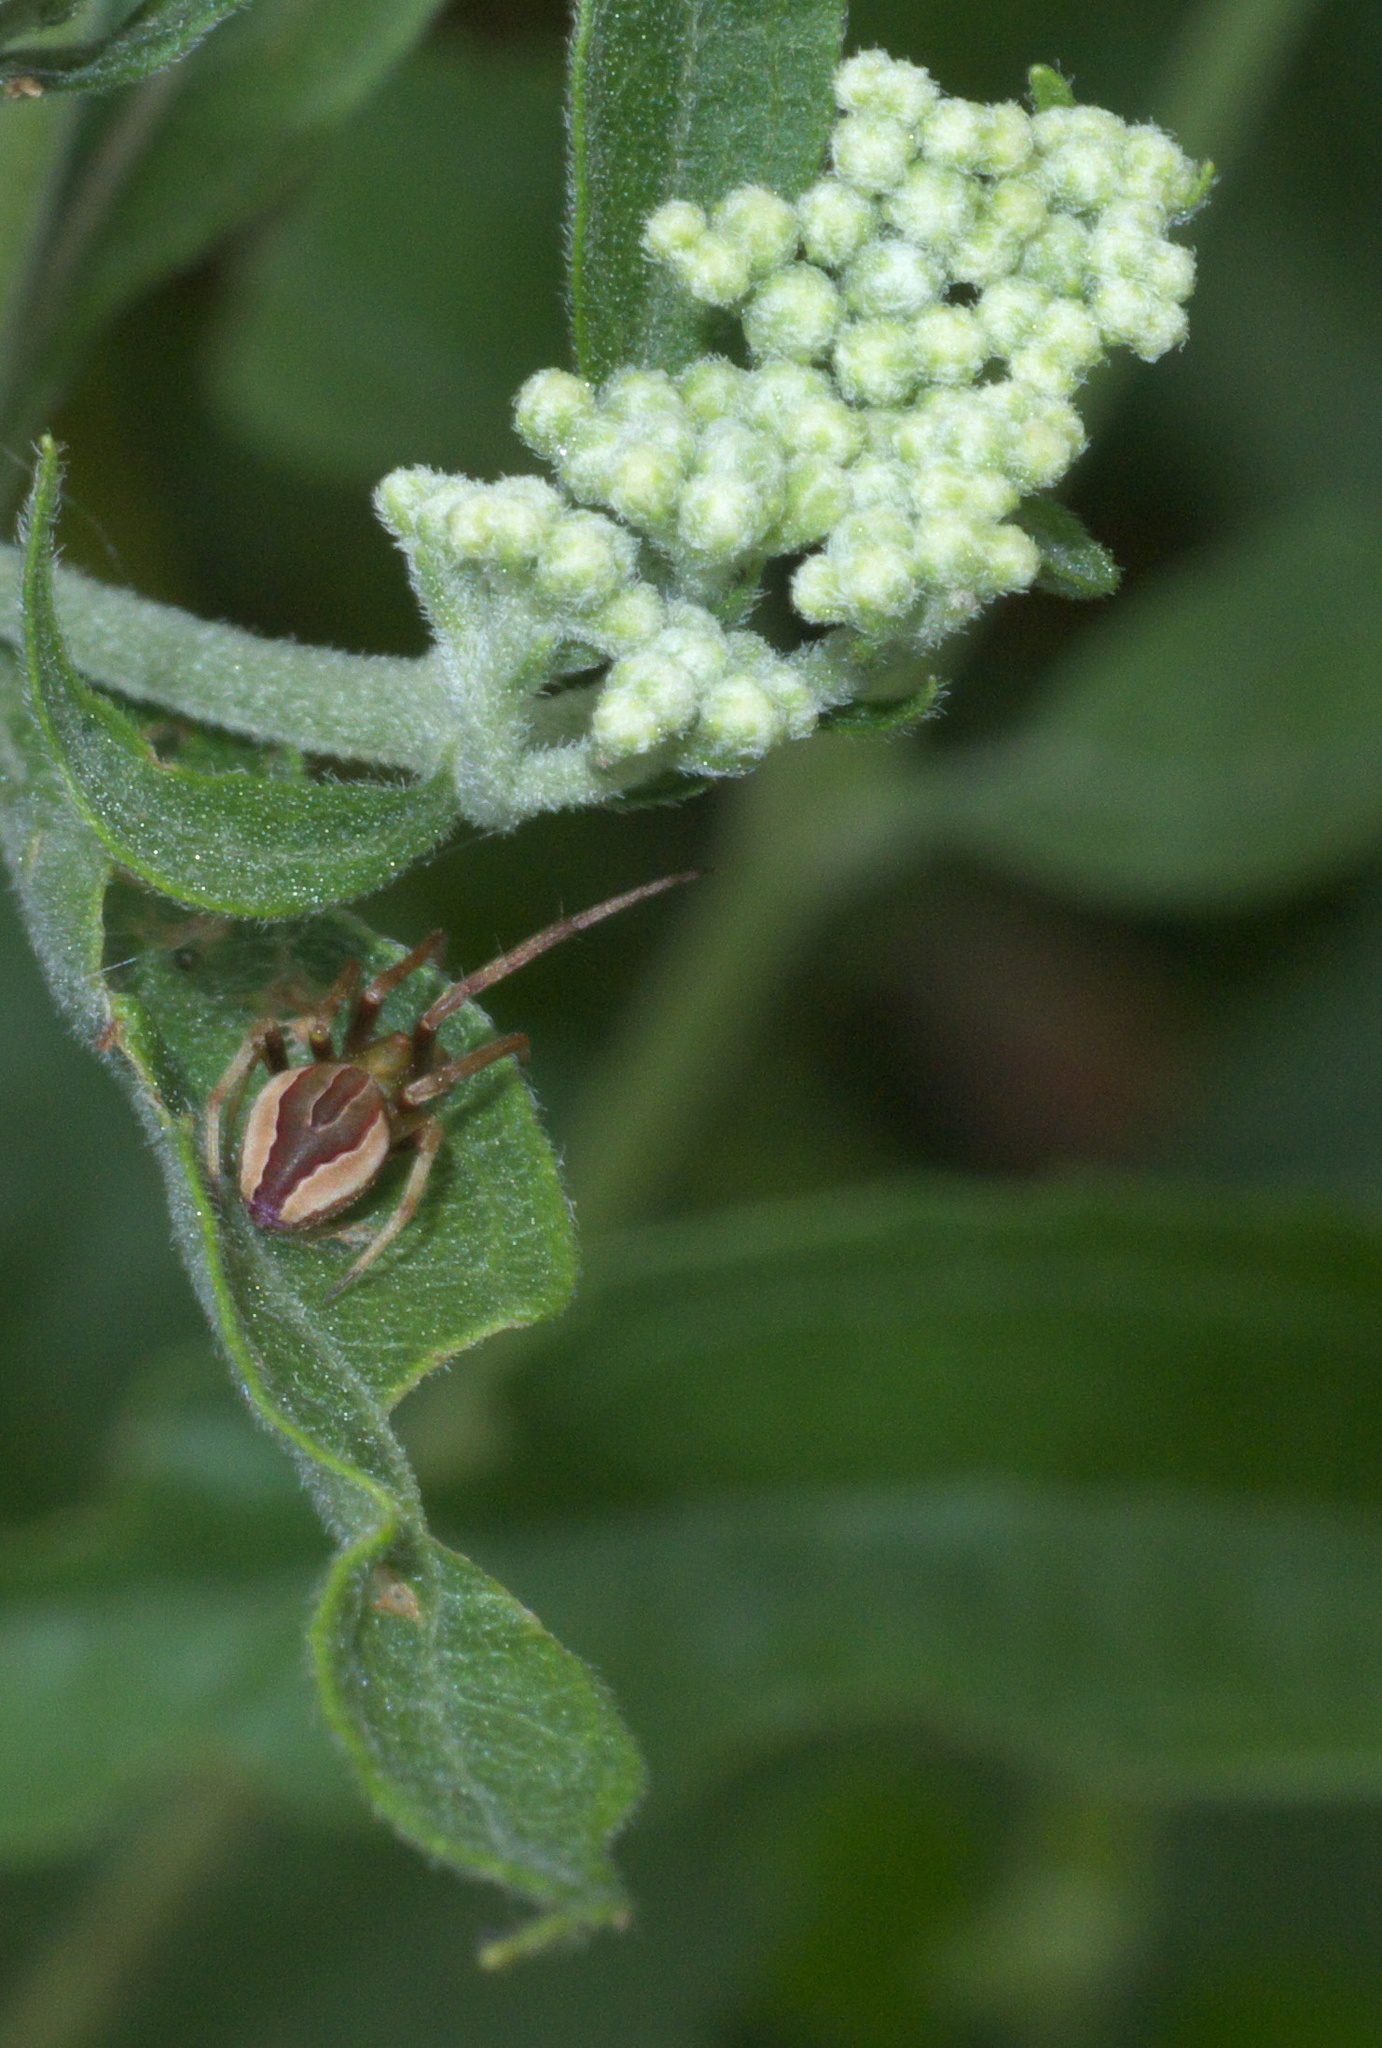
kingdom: Animalia
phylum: Arthropoda
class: Arachnida
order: Araneae
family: Araneidae
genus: Acacesia
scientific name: Acacesia hamata
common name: Orb weavers
